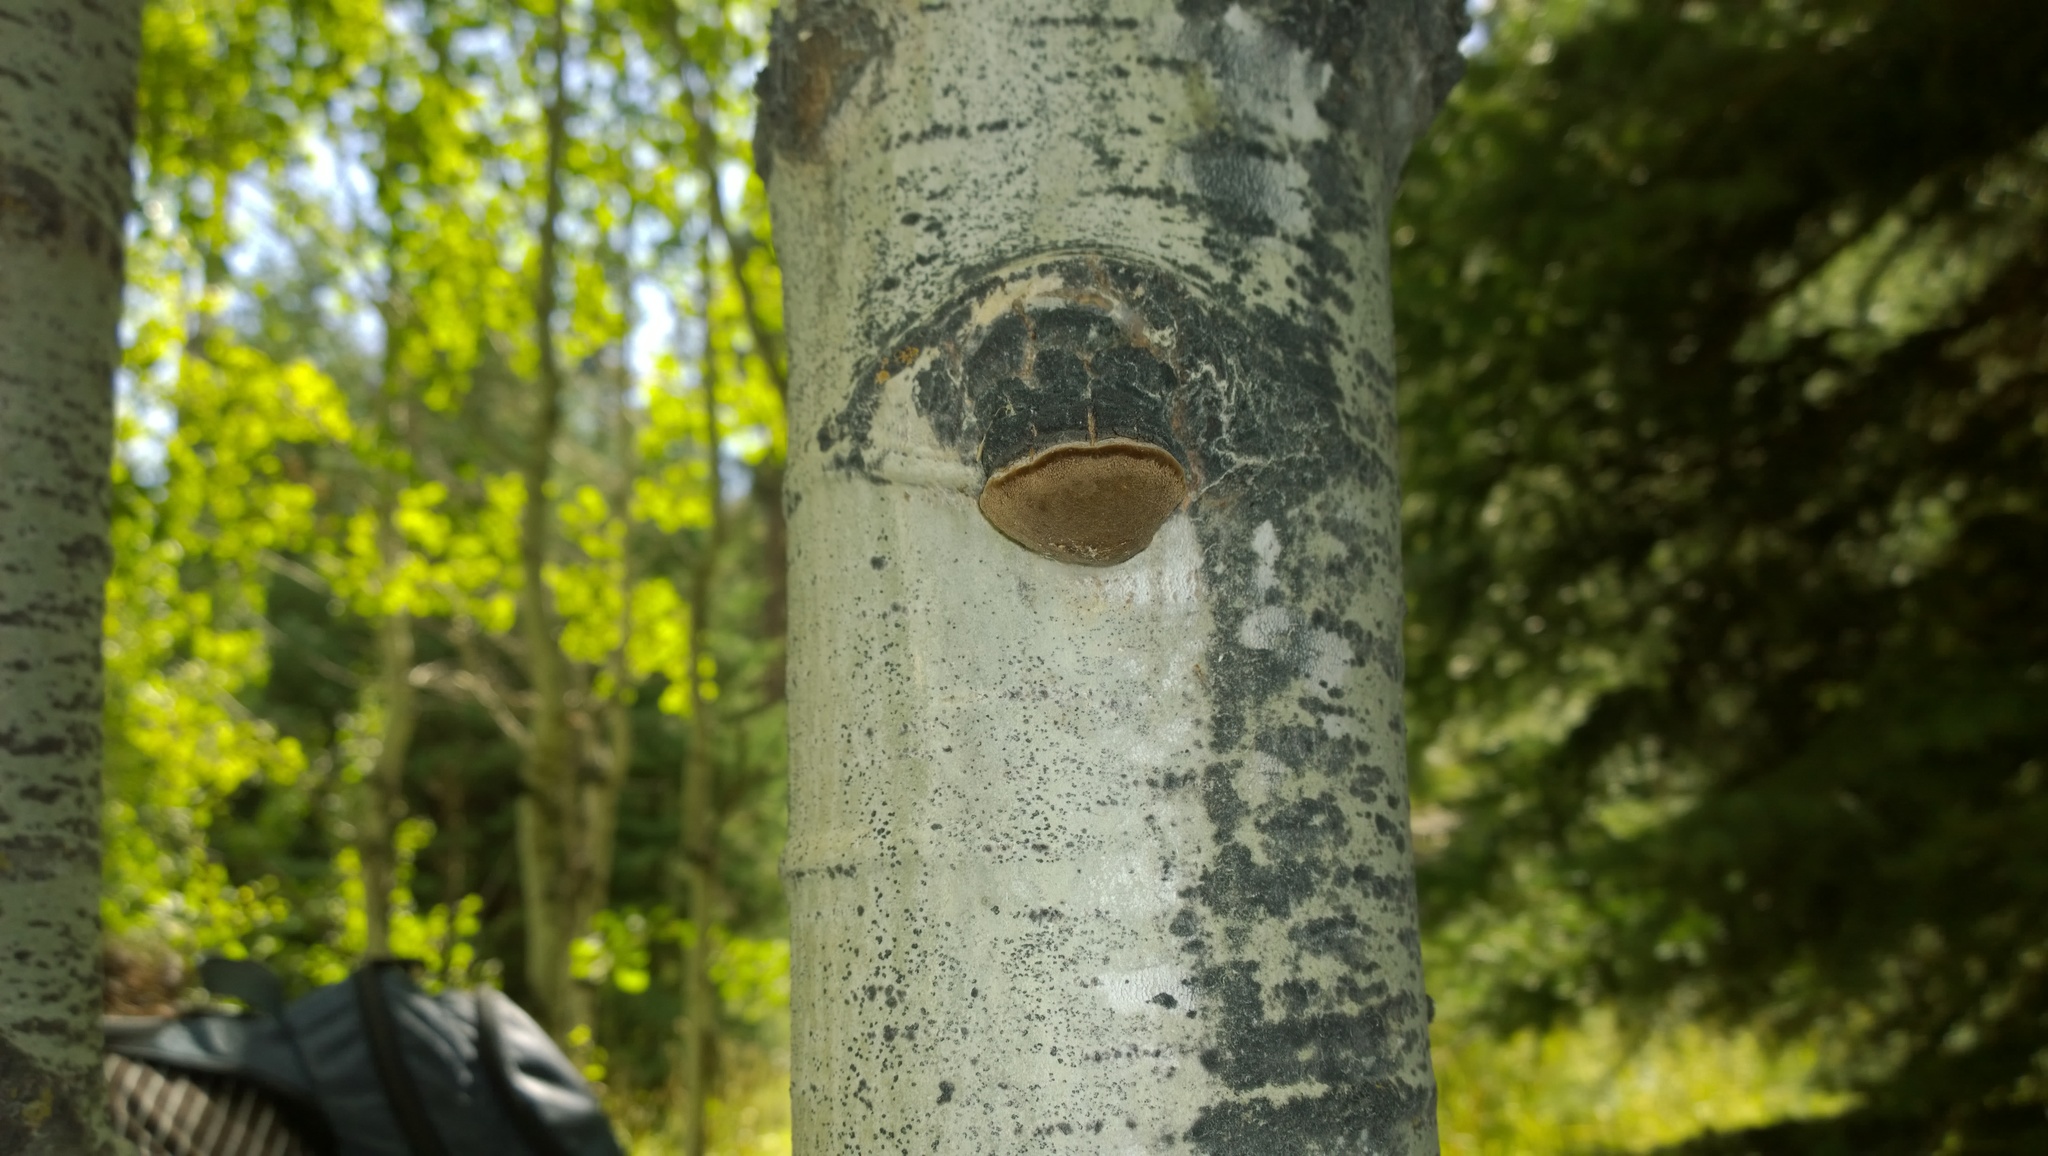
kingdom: Fungi
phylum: Basidiomycota
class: Agaricomycetes
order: Hymenochaetales
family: Hymenochaetaceae
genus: Phellinus
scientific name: Phellinus tremulae
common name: Aspen bracket
